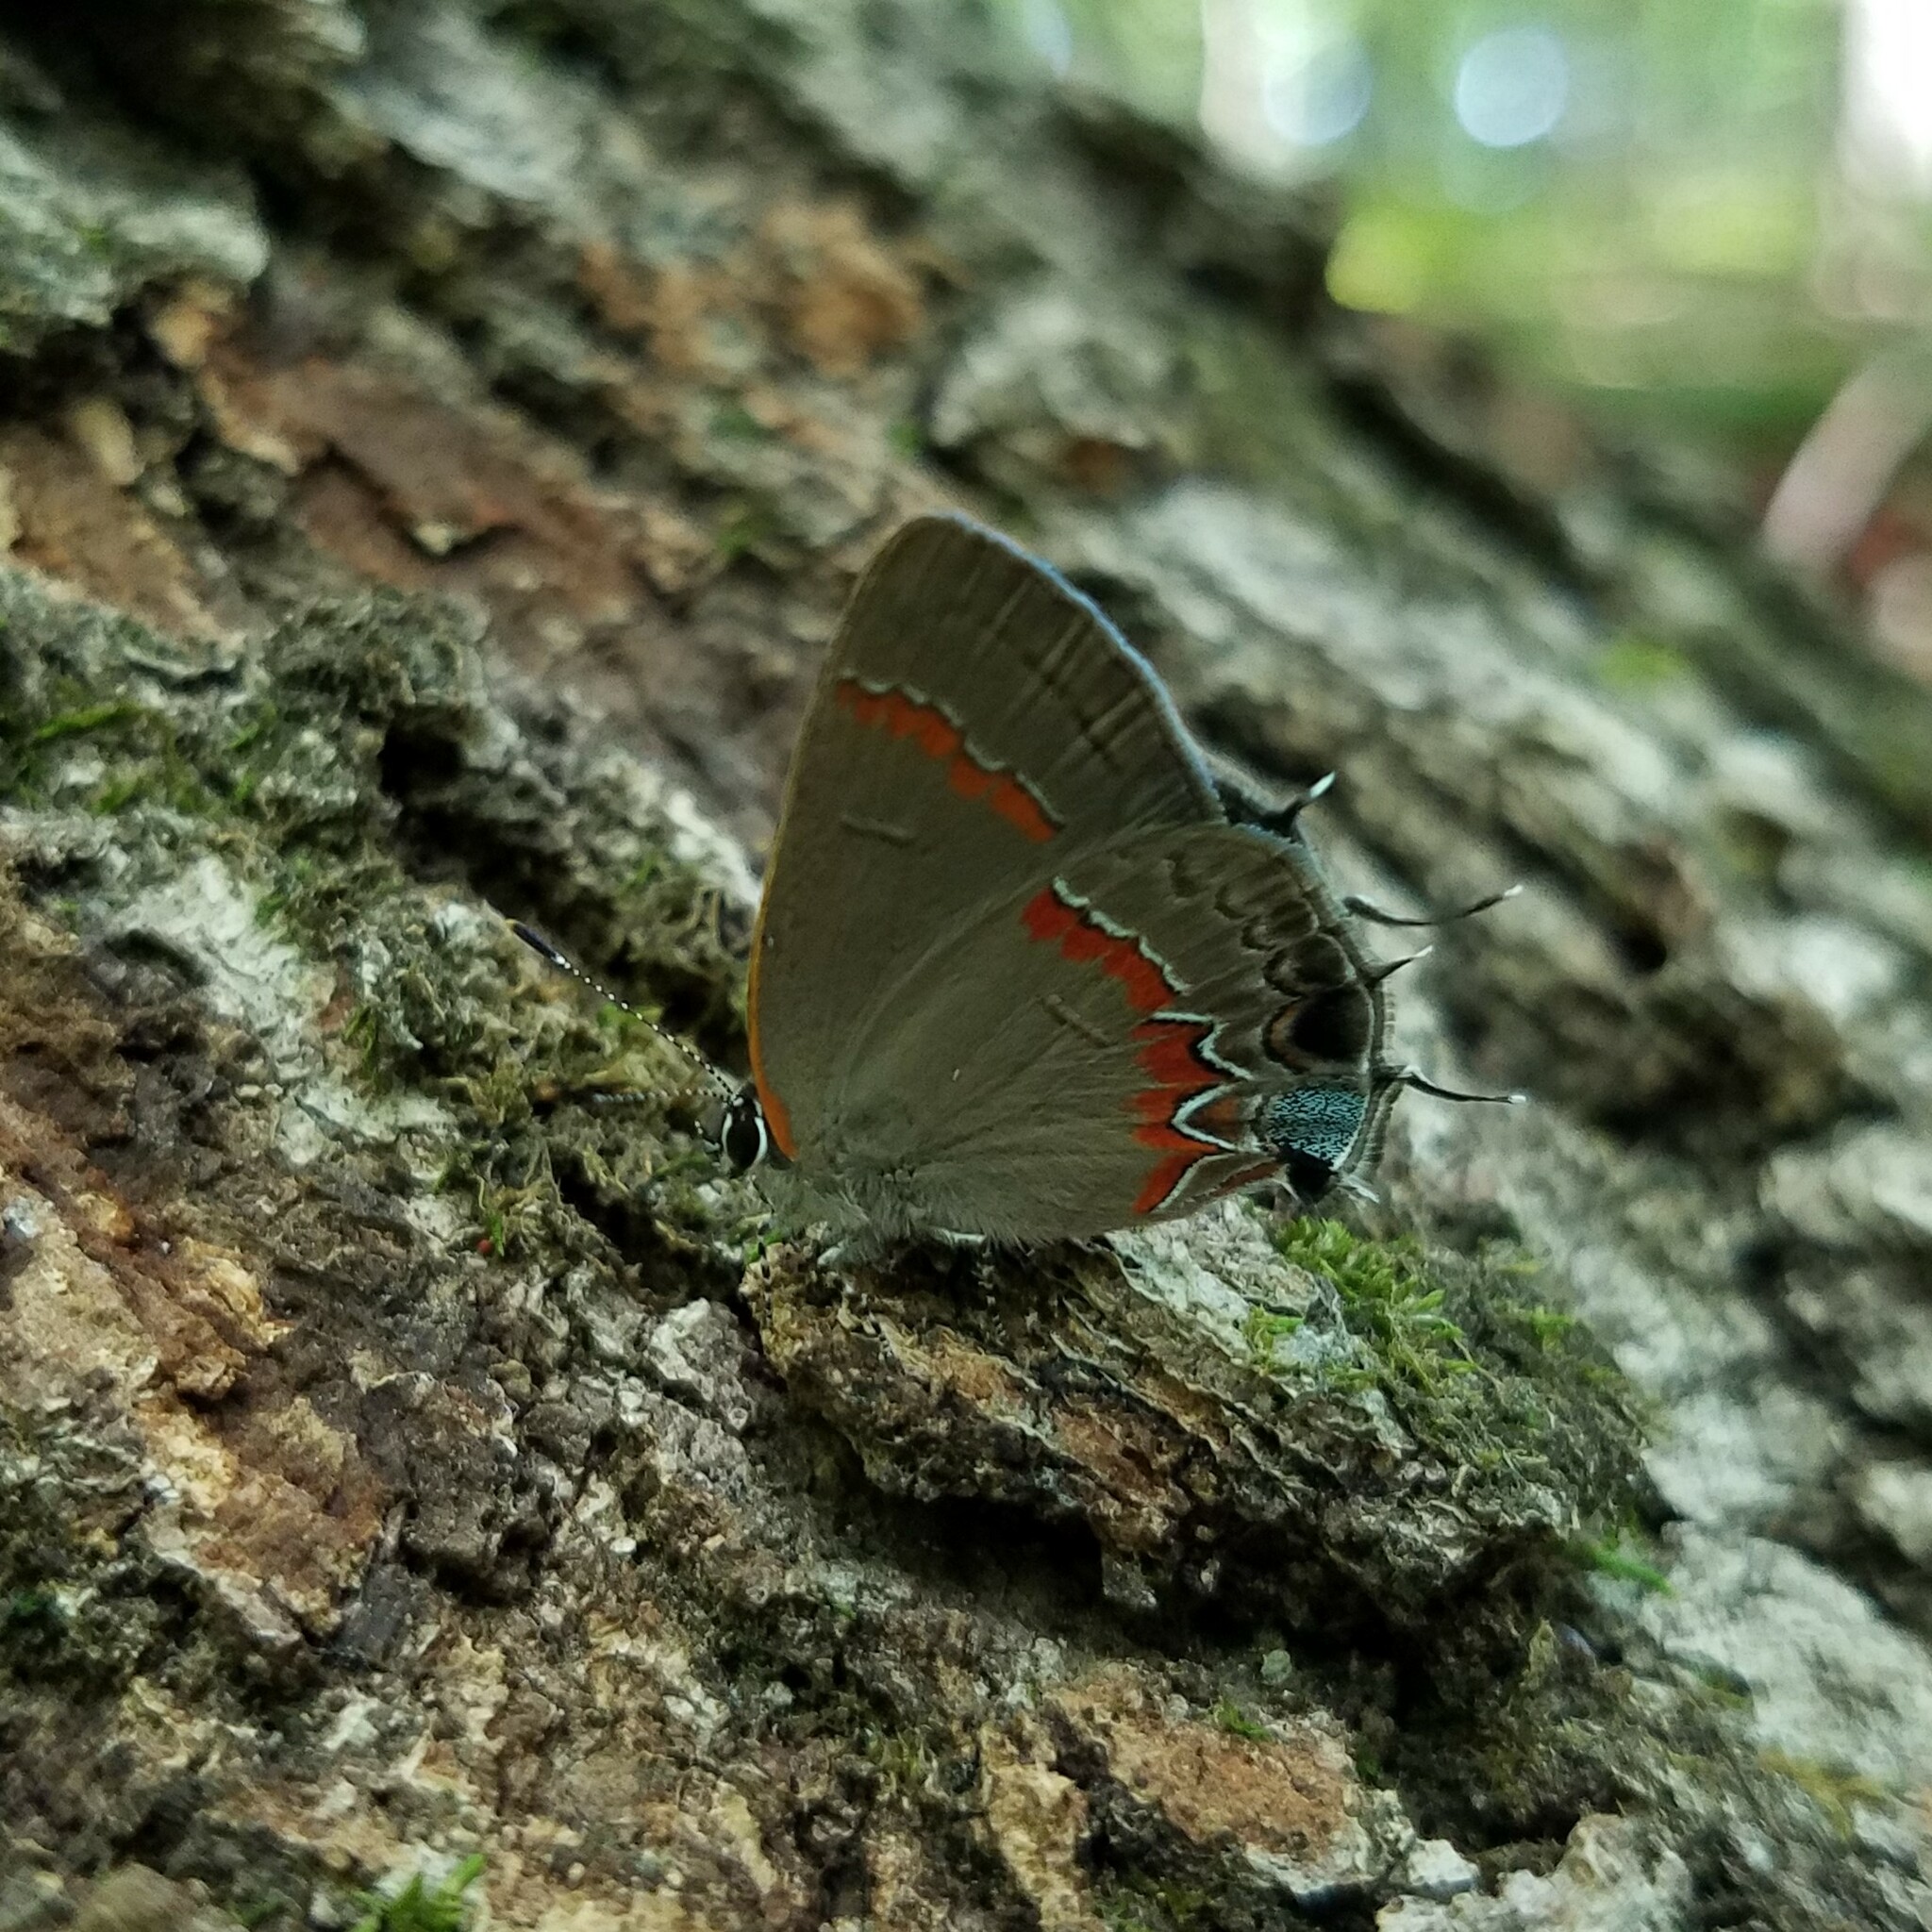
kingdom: Animalia
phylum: Arthropoda
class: Insecta
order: Lepidoptera
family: Lycaenidae
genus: Calycopis
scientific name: Calycopis cecrops
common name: Red-banded hairstreak
